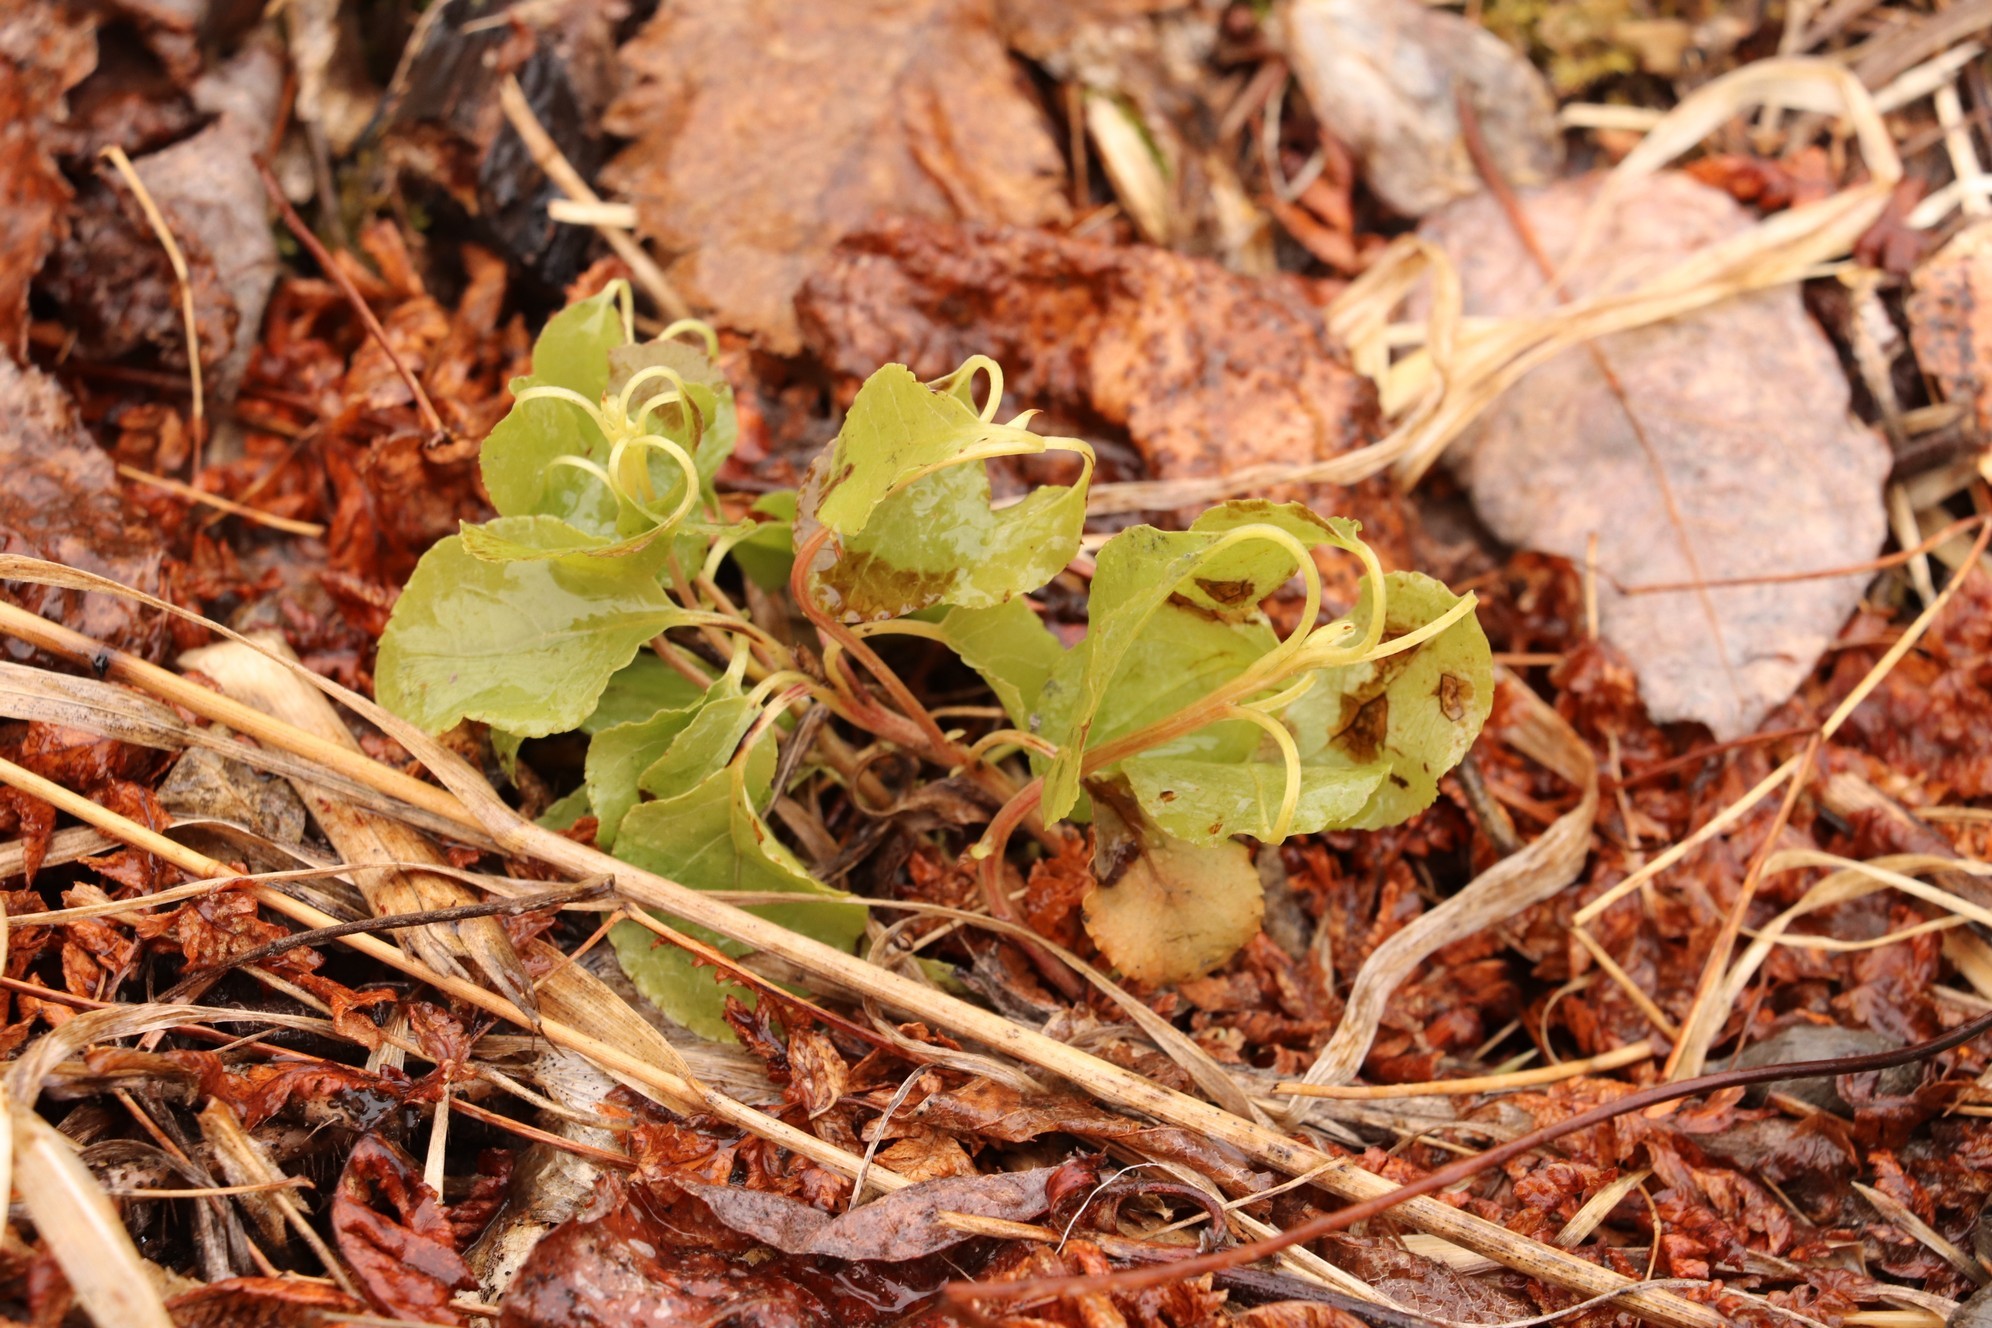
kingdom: Plantae
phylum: Tracheophyta
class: Magnoliopsida
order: Ericales
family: Ericaceae
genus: Orthilia
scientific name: Orthilia secunda
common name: One-sided orthilia
